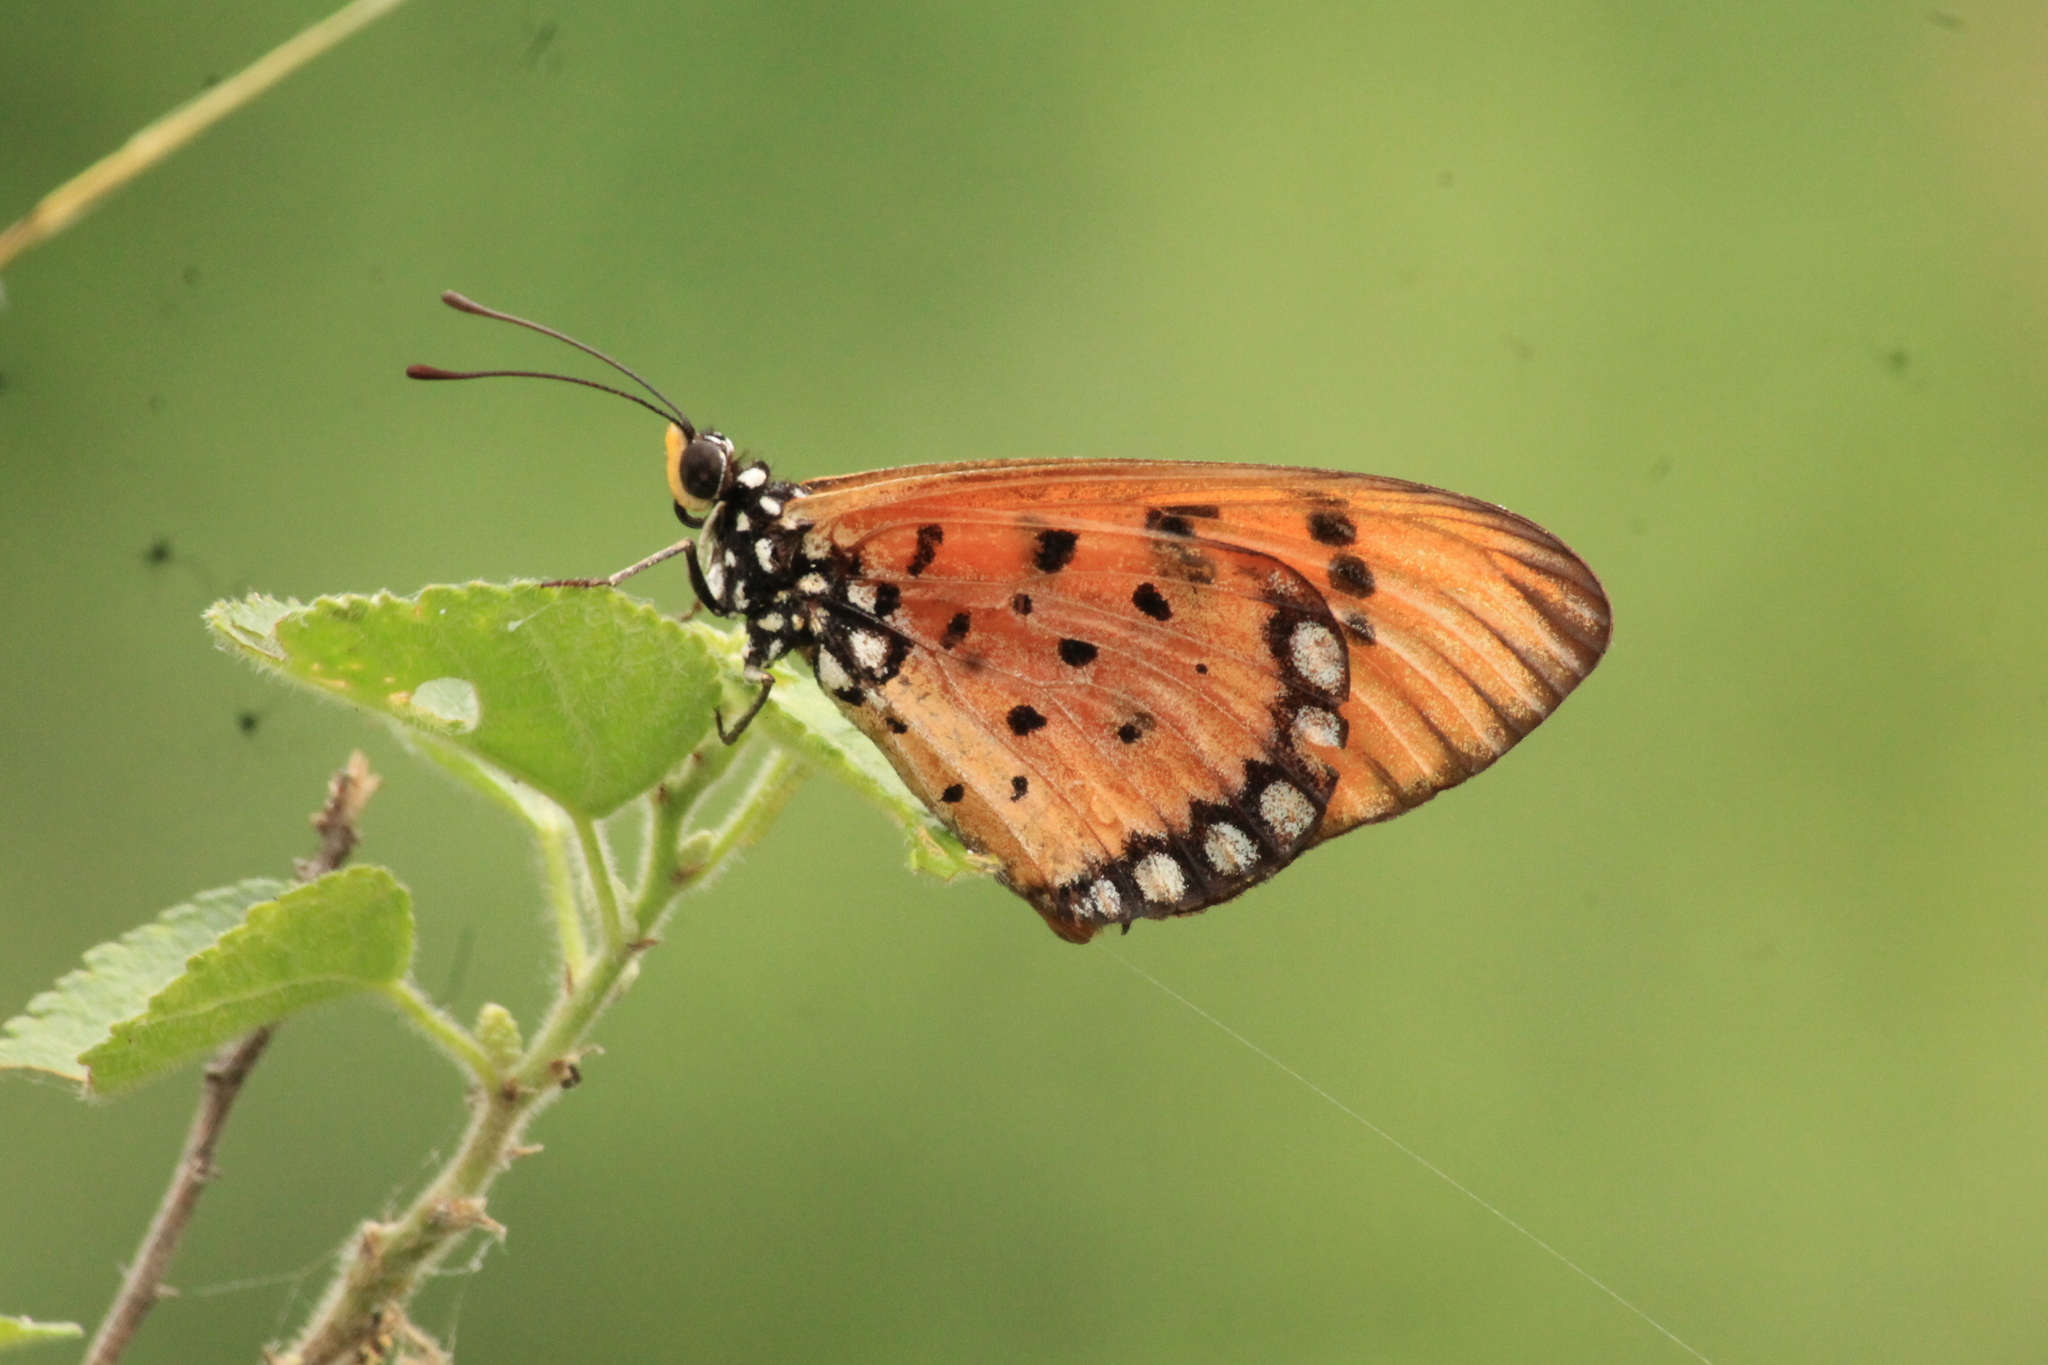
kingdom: Animalia
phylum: Arthropoda
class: Insecta
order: Lepidoptera
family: Nymphalidae
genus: Acraea
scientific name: Acraea terpsicore
